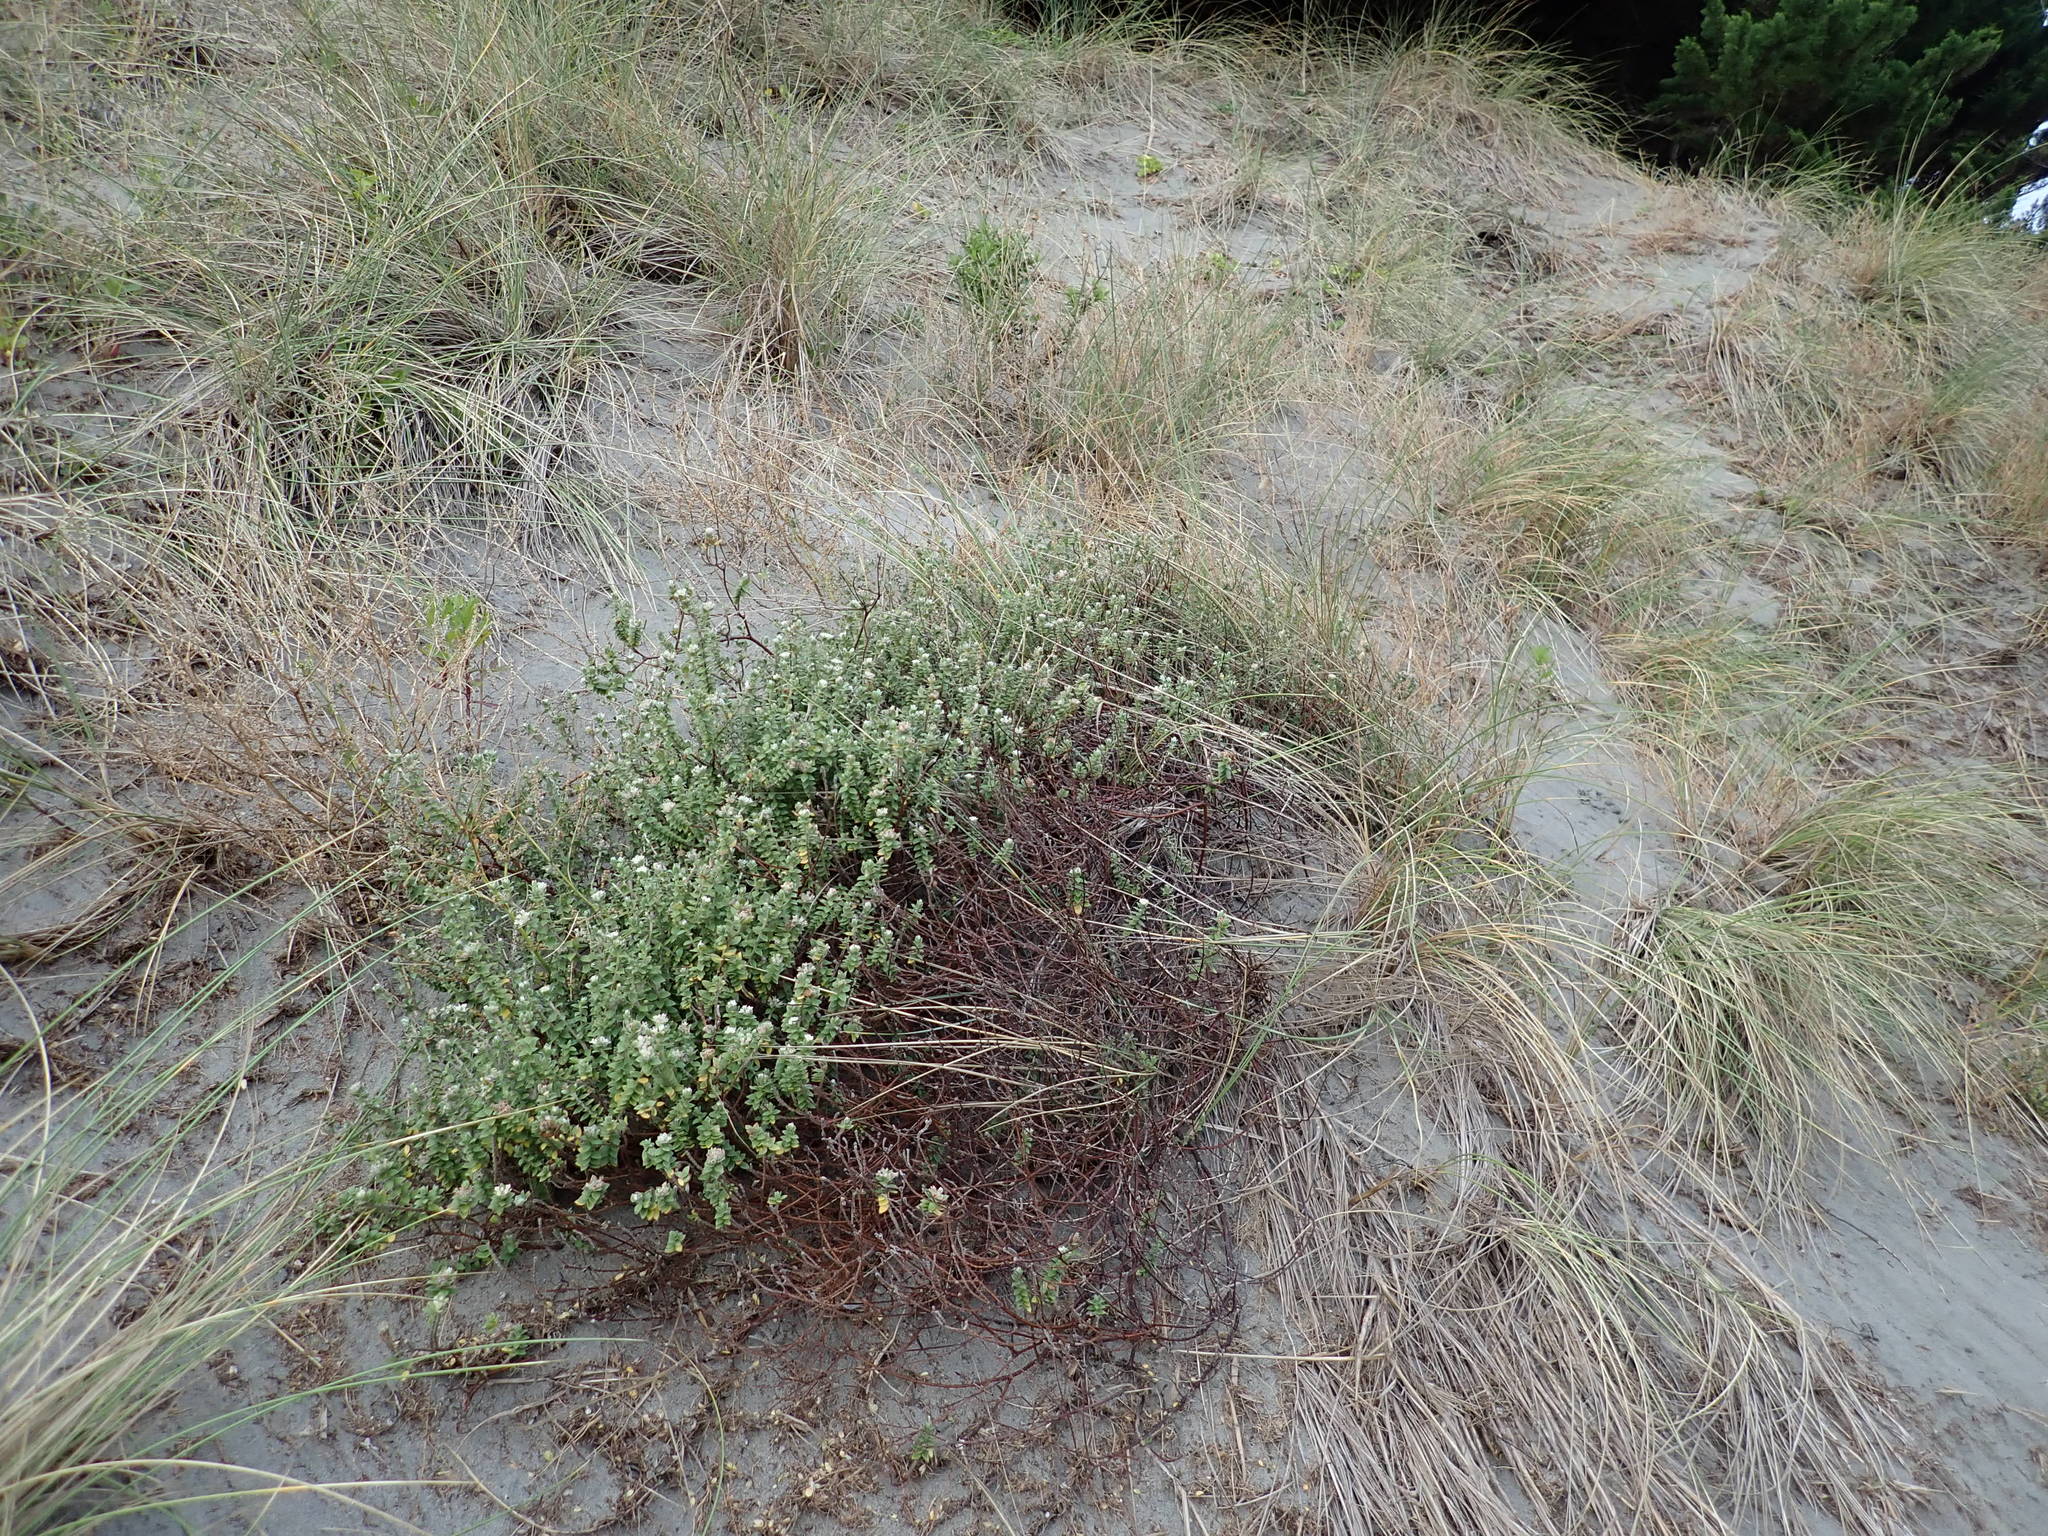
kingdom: Plantae
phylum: Tracheophyta
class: Magnoliopsida
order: Malvales
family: Thymelaeaceae
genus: Pimelea
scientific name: Pimelea villosa
